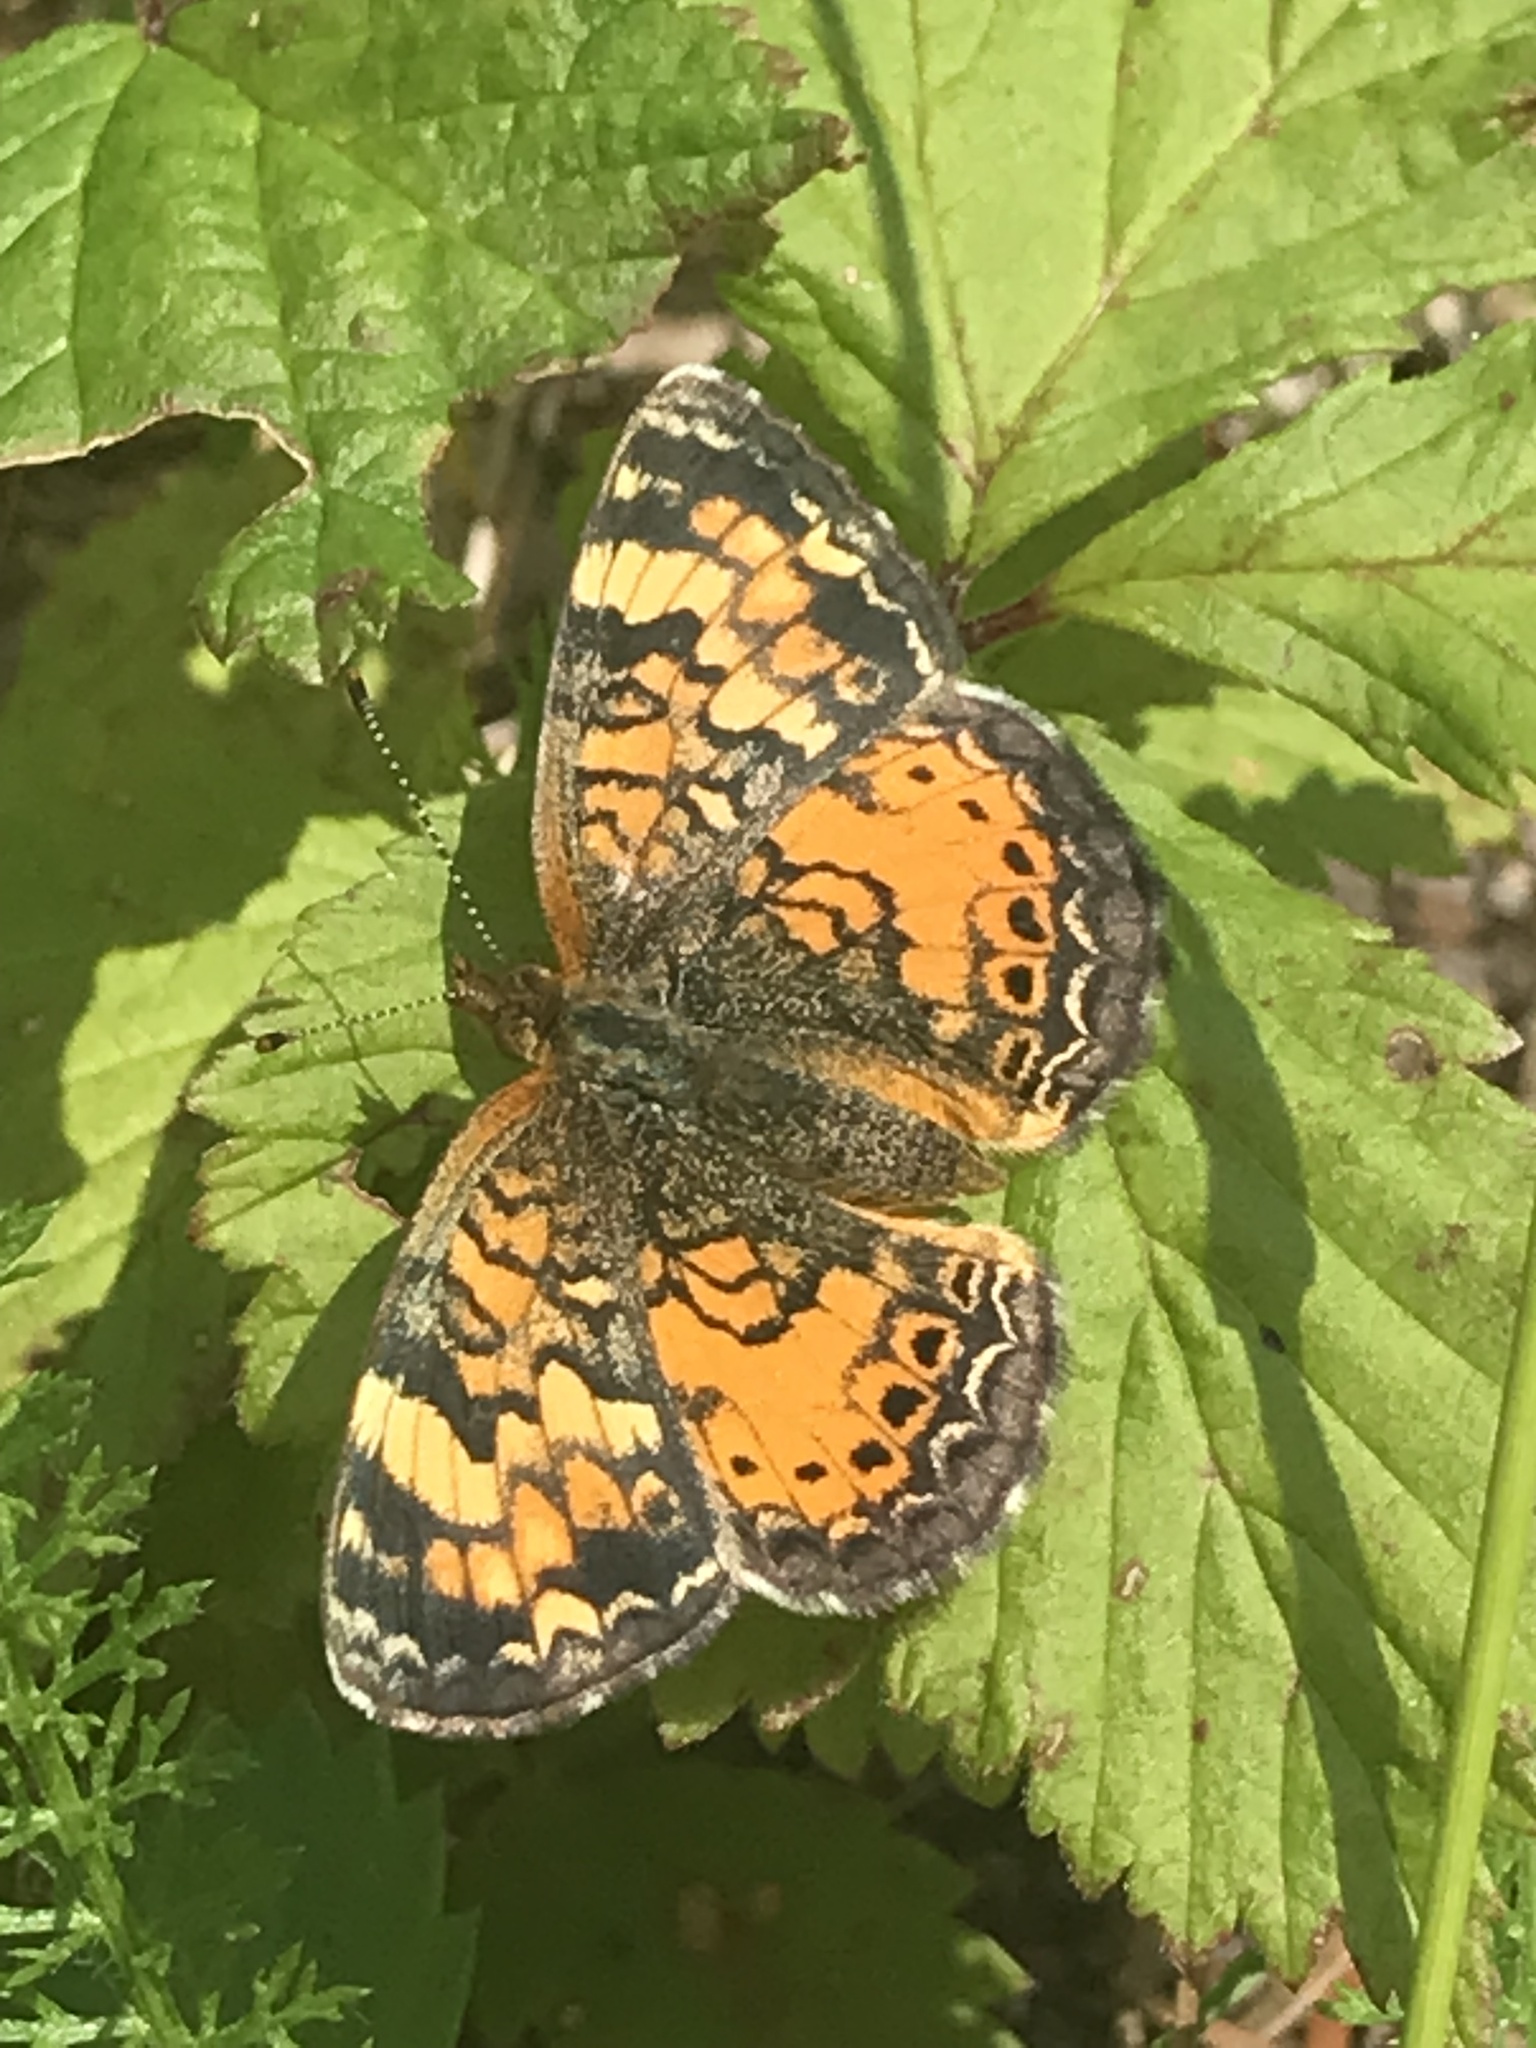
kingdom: Animalia
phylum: Arthropoda
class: Insecta
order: Lepidoptera
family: Nymphalidae
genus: Phyciodes
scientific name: Phyciodes tharos
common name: Pearl crescent
